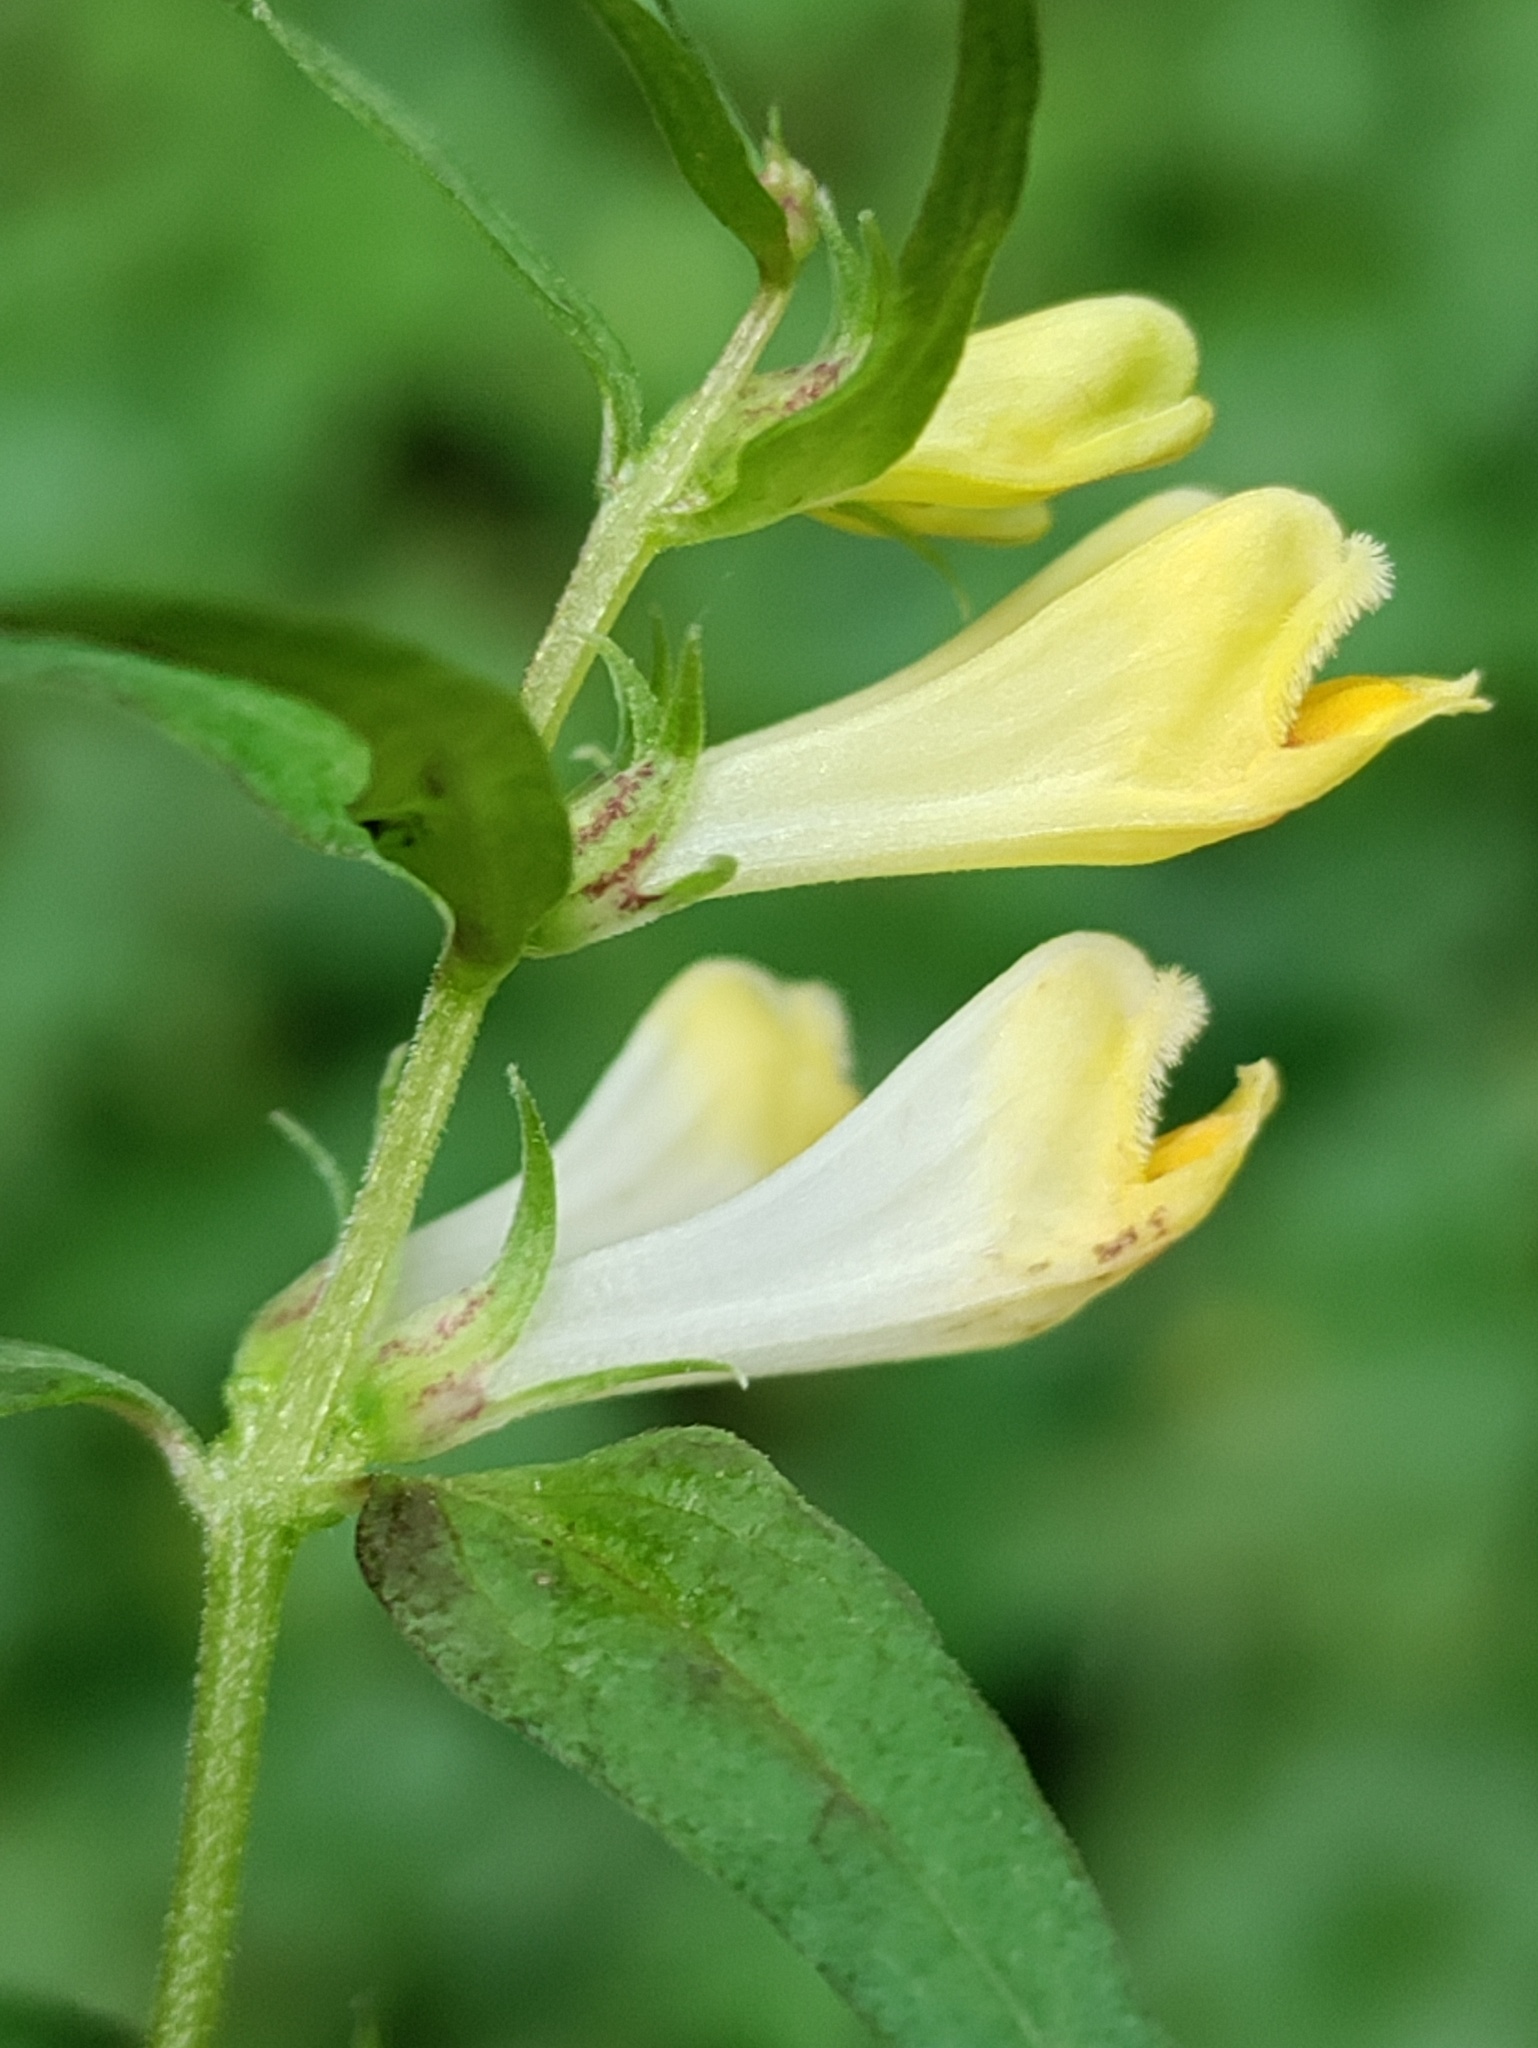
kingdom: Plantae
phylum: Tracheophyta
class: Magnoliopsida
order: Lamiales
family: Orobanchaceae
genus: Melampyrum
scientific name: Melampyrum pratense
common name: Common cow-wheat
